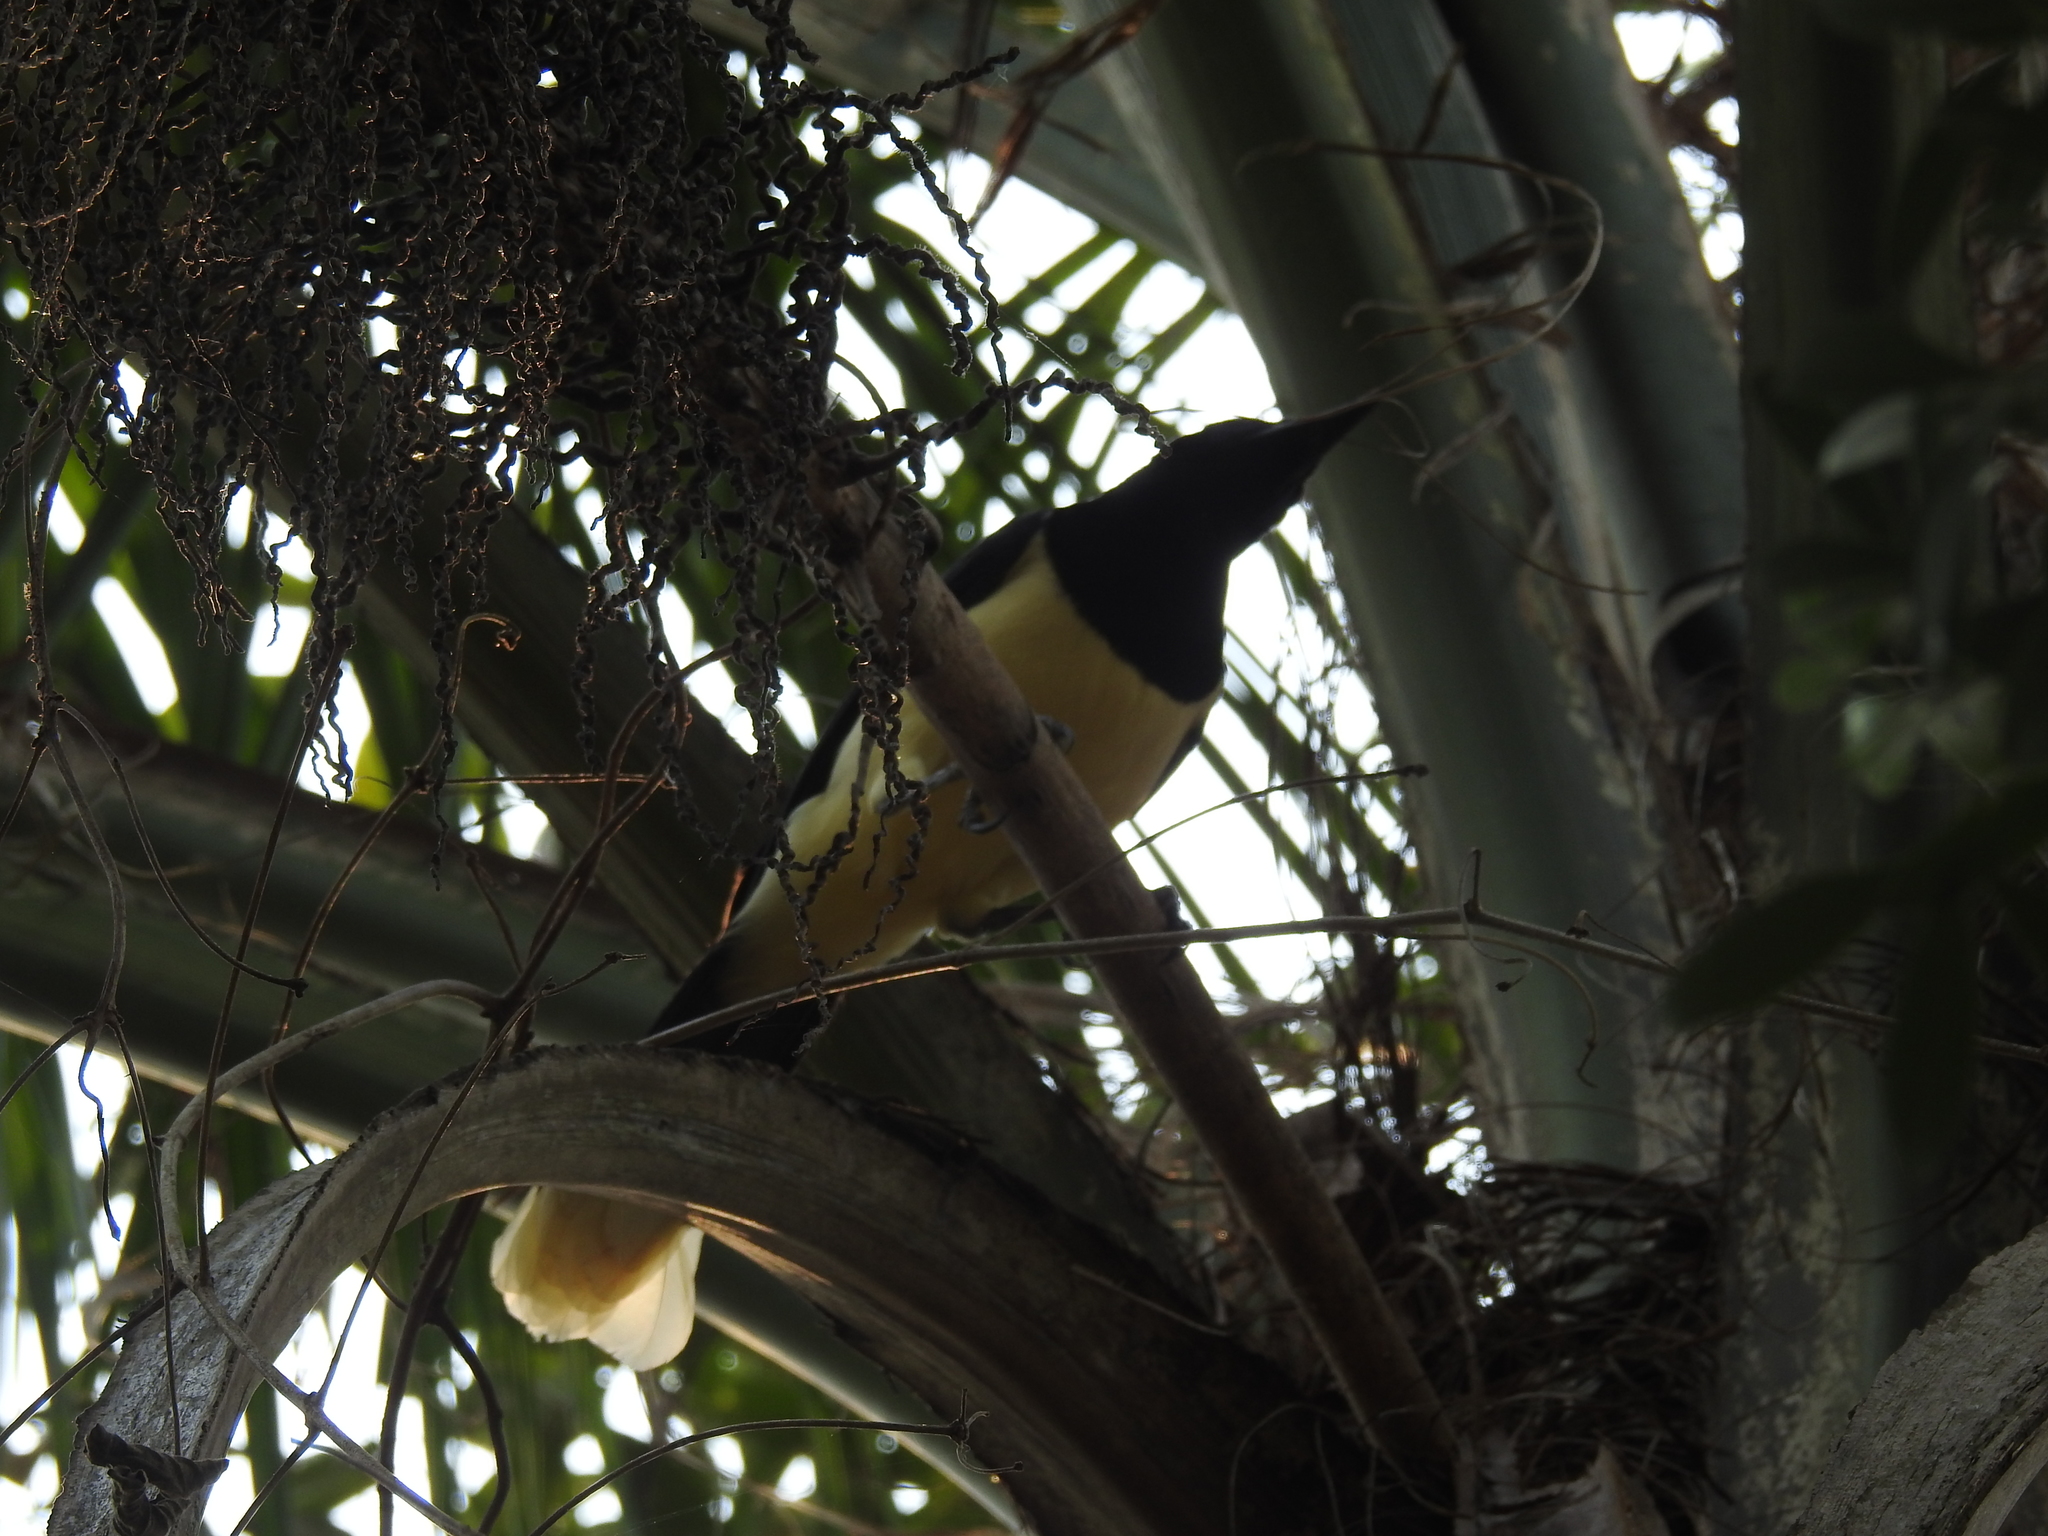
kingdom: Animalia
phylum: Chordata
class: Aves
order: Passeriformes
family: Corvidae
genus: Cyanocorax
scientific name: Cyanocorax chrysops
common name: Plush-crested jay
